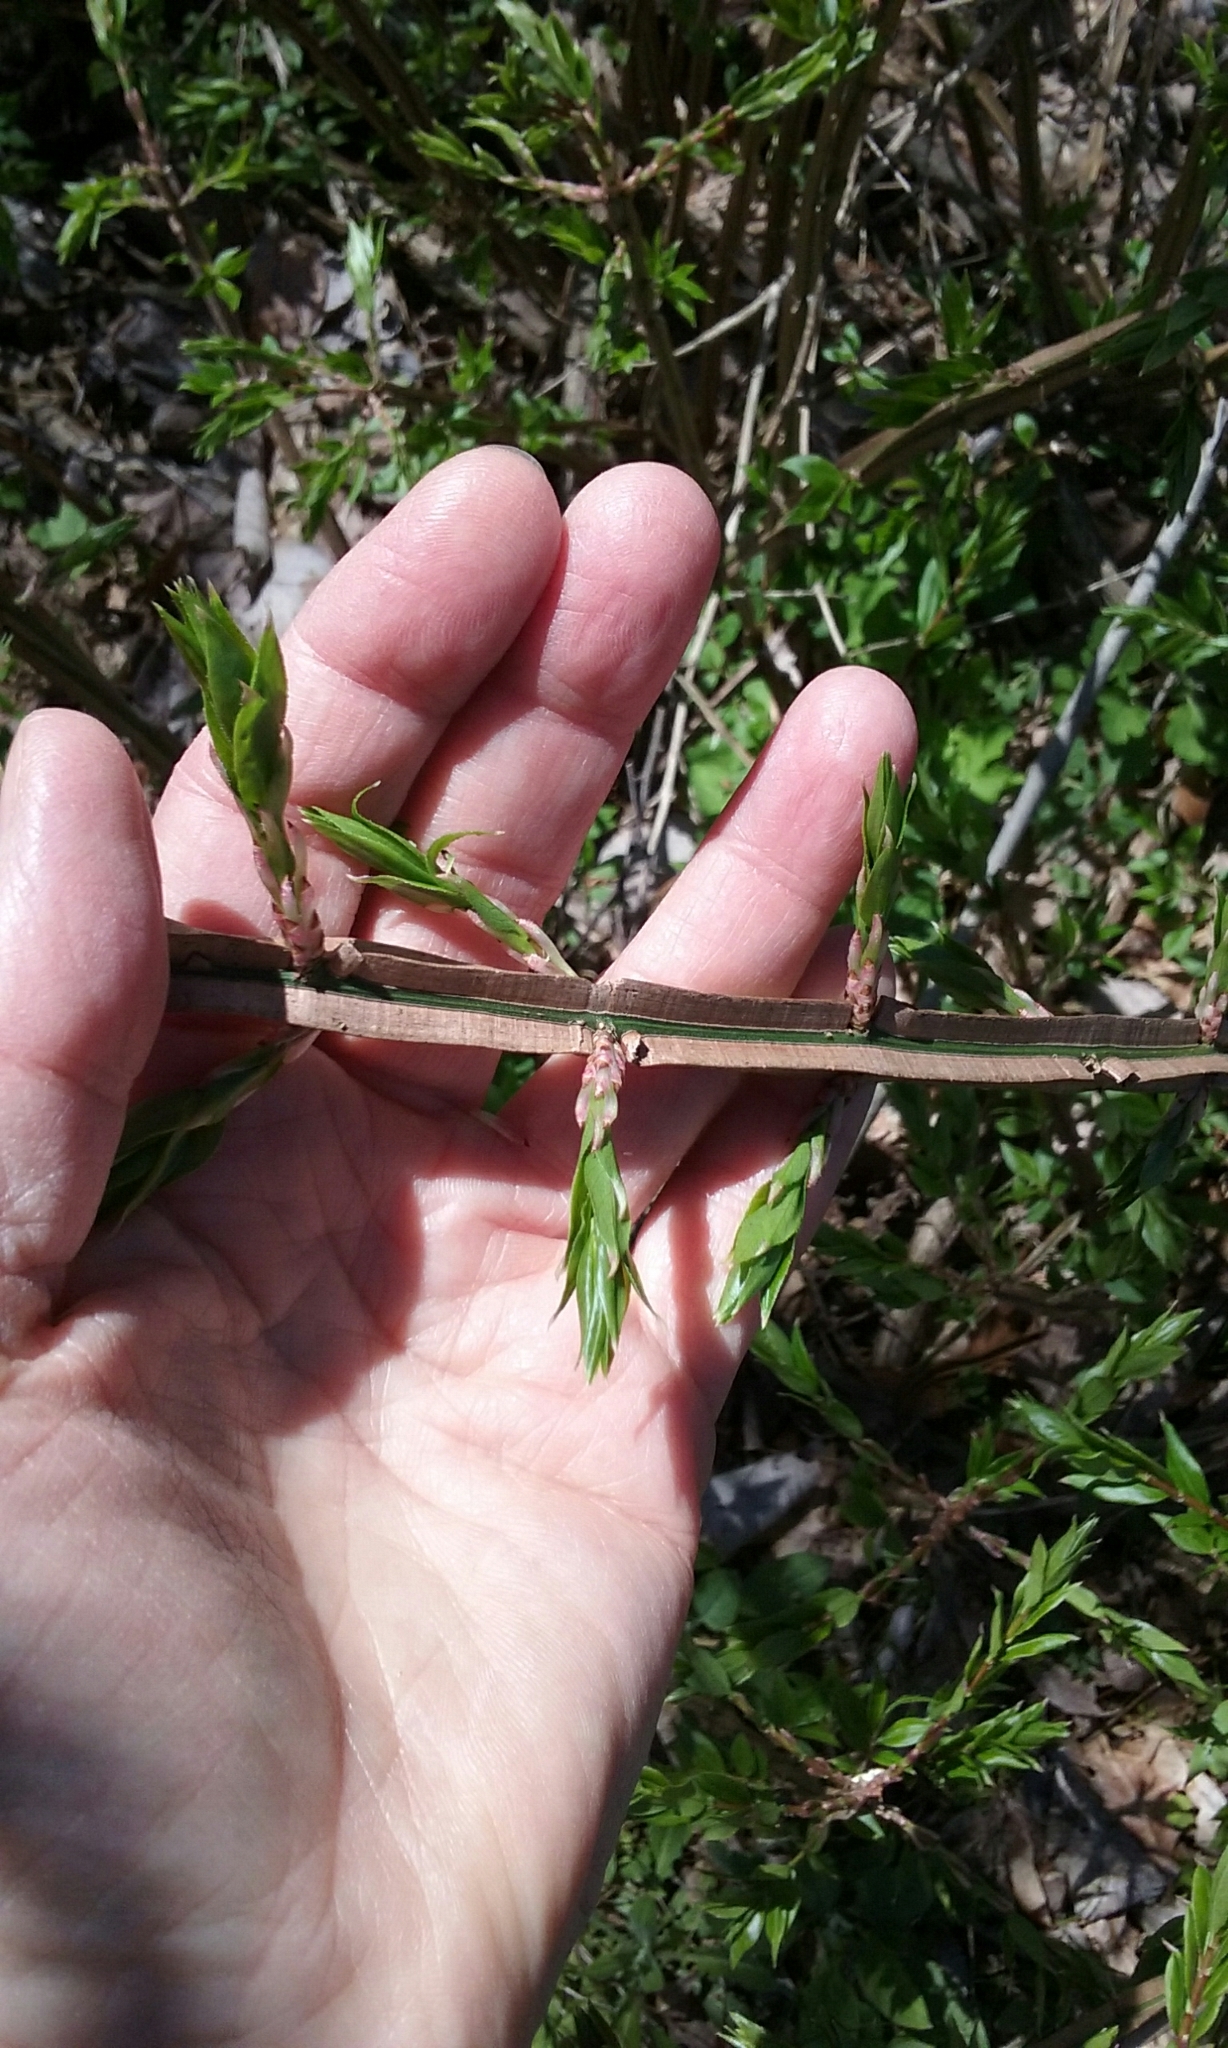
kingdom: Plantae
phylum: Tracheophyta
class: Magnoliopsida
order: Celastrales
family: Celastraceae
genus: Euonymus
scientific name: Euonymus alatus
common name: Winged euonymus
